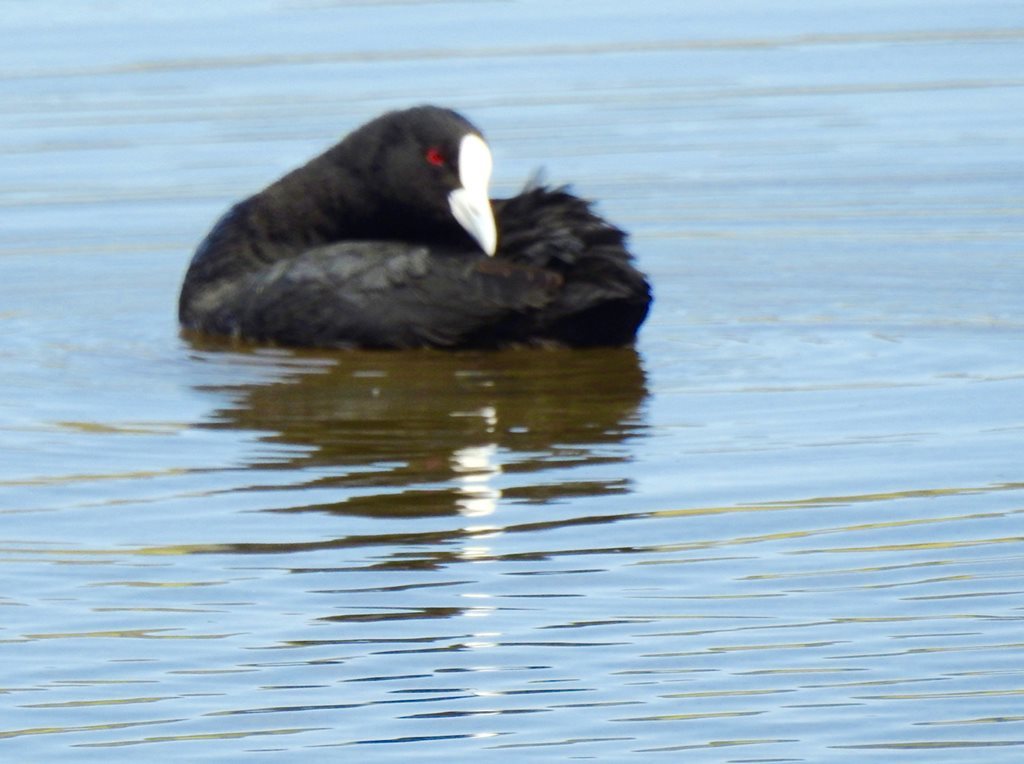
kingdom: Animalia
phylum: Chordata
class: Aves
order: Gruiformes
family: Rallidae
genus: Fulica
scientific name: Fulica atra
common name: Eurasian coot
